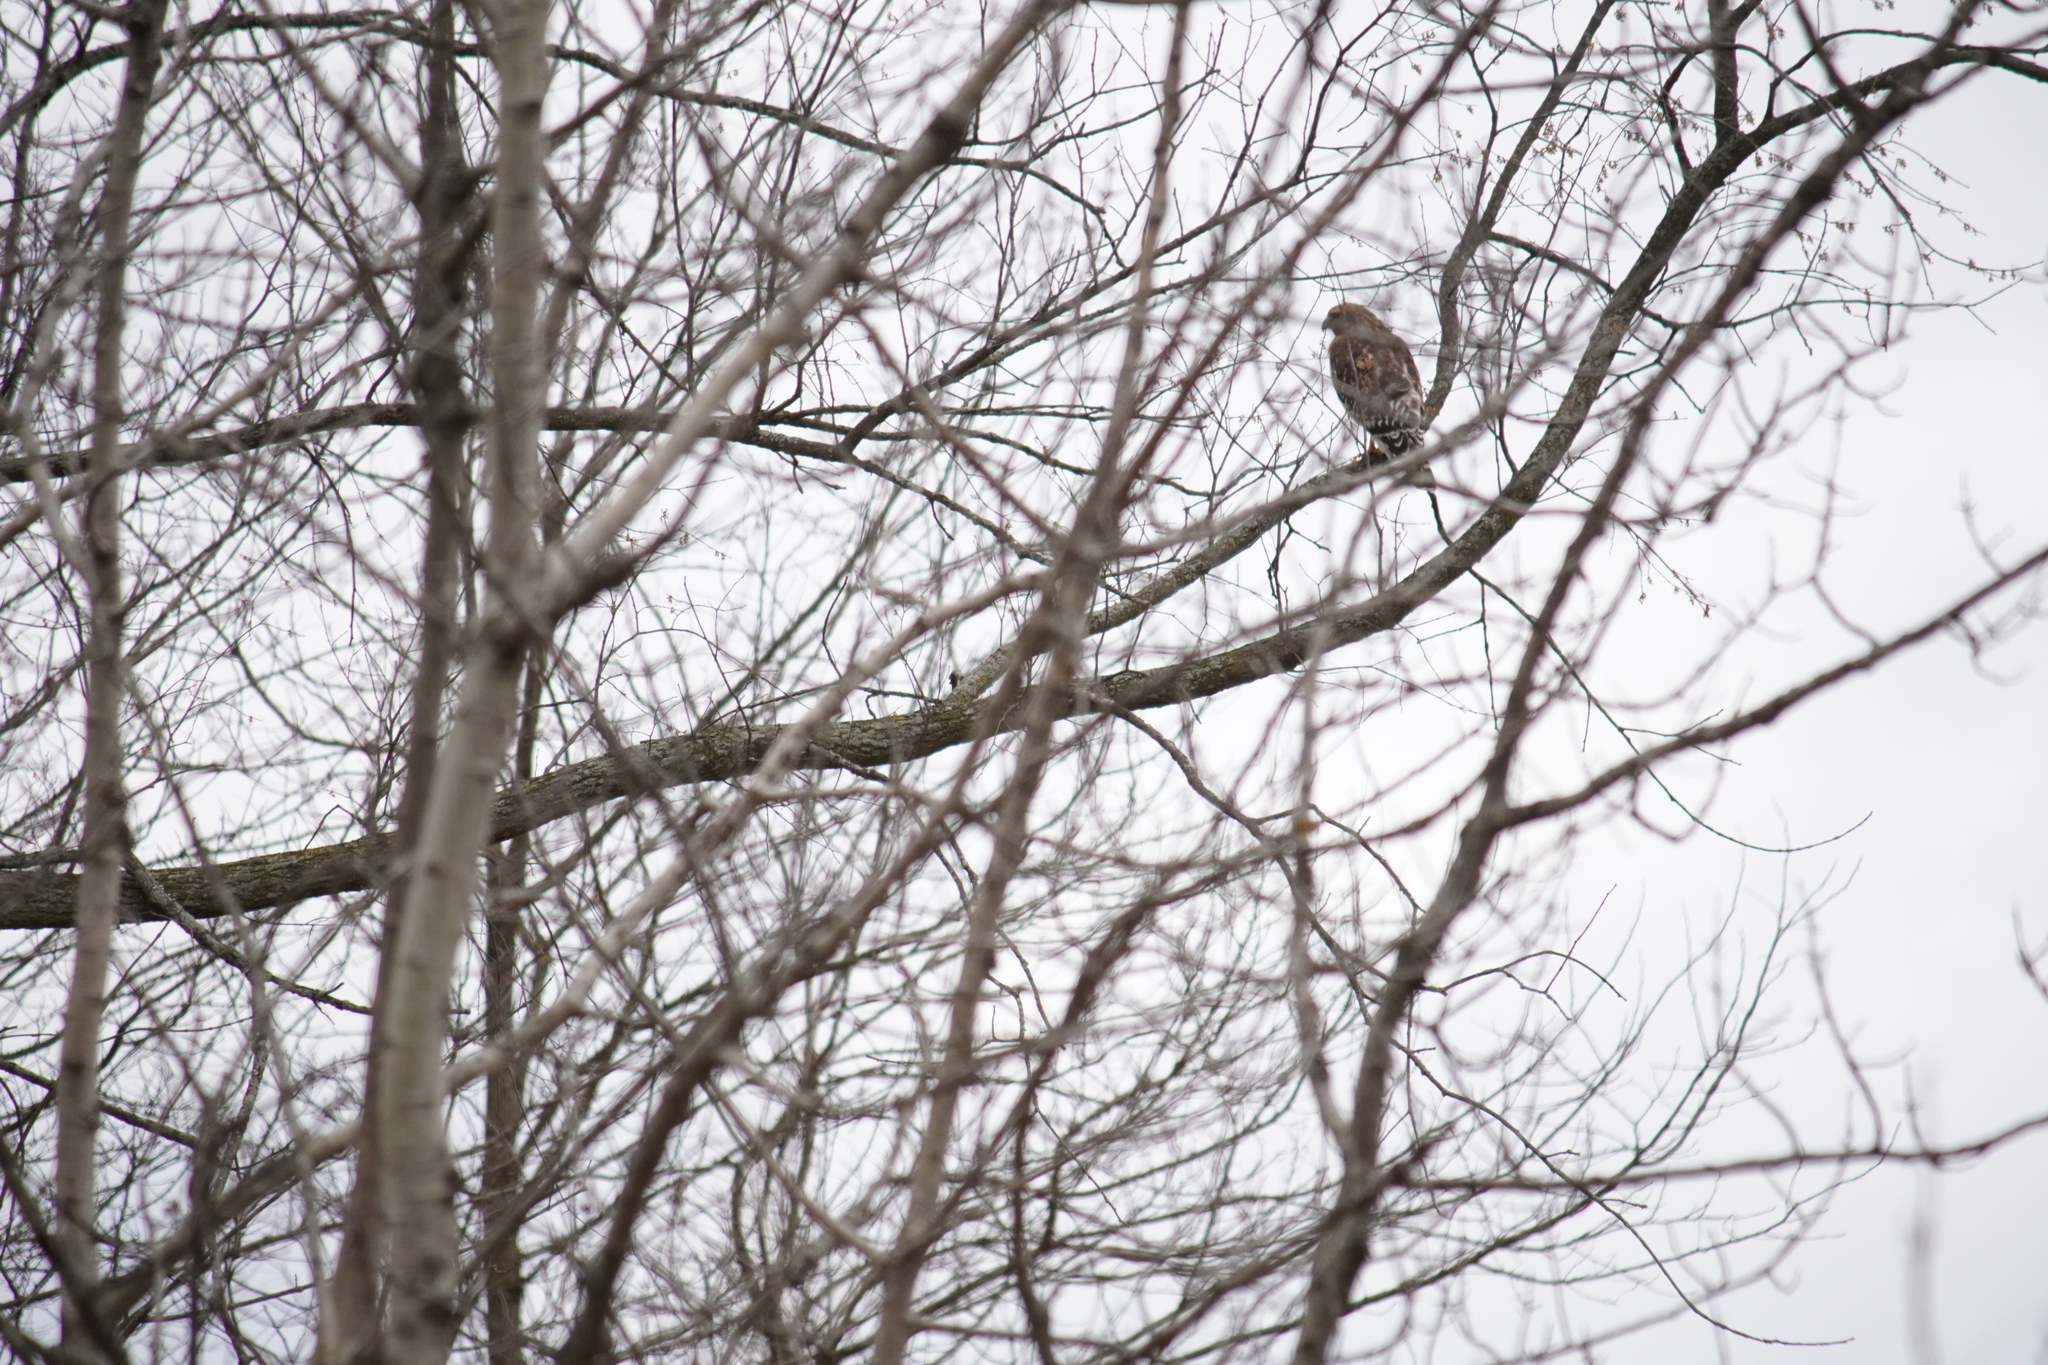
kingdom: Animalia
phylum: Chordata
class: Aves
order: Accipitriformes
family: Accipitridae
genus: Buteo
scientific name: Buteo lineatus
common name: Red-shouldered hawk
